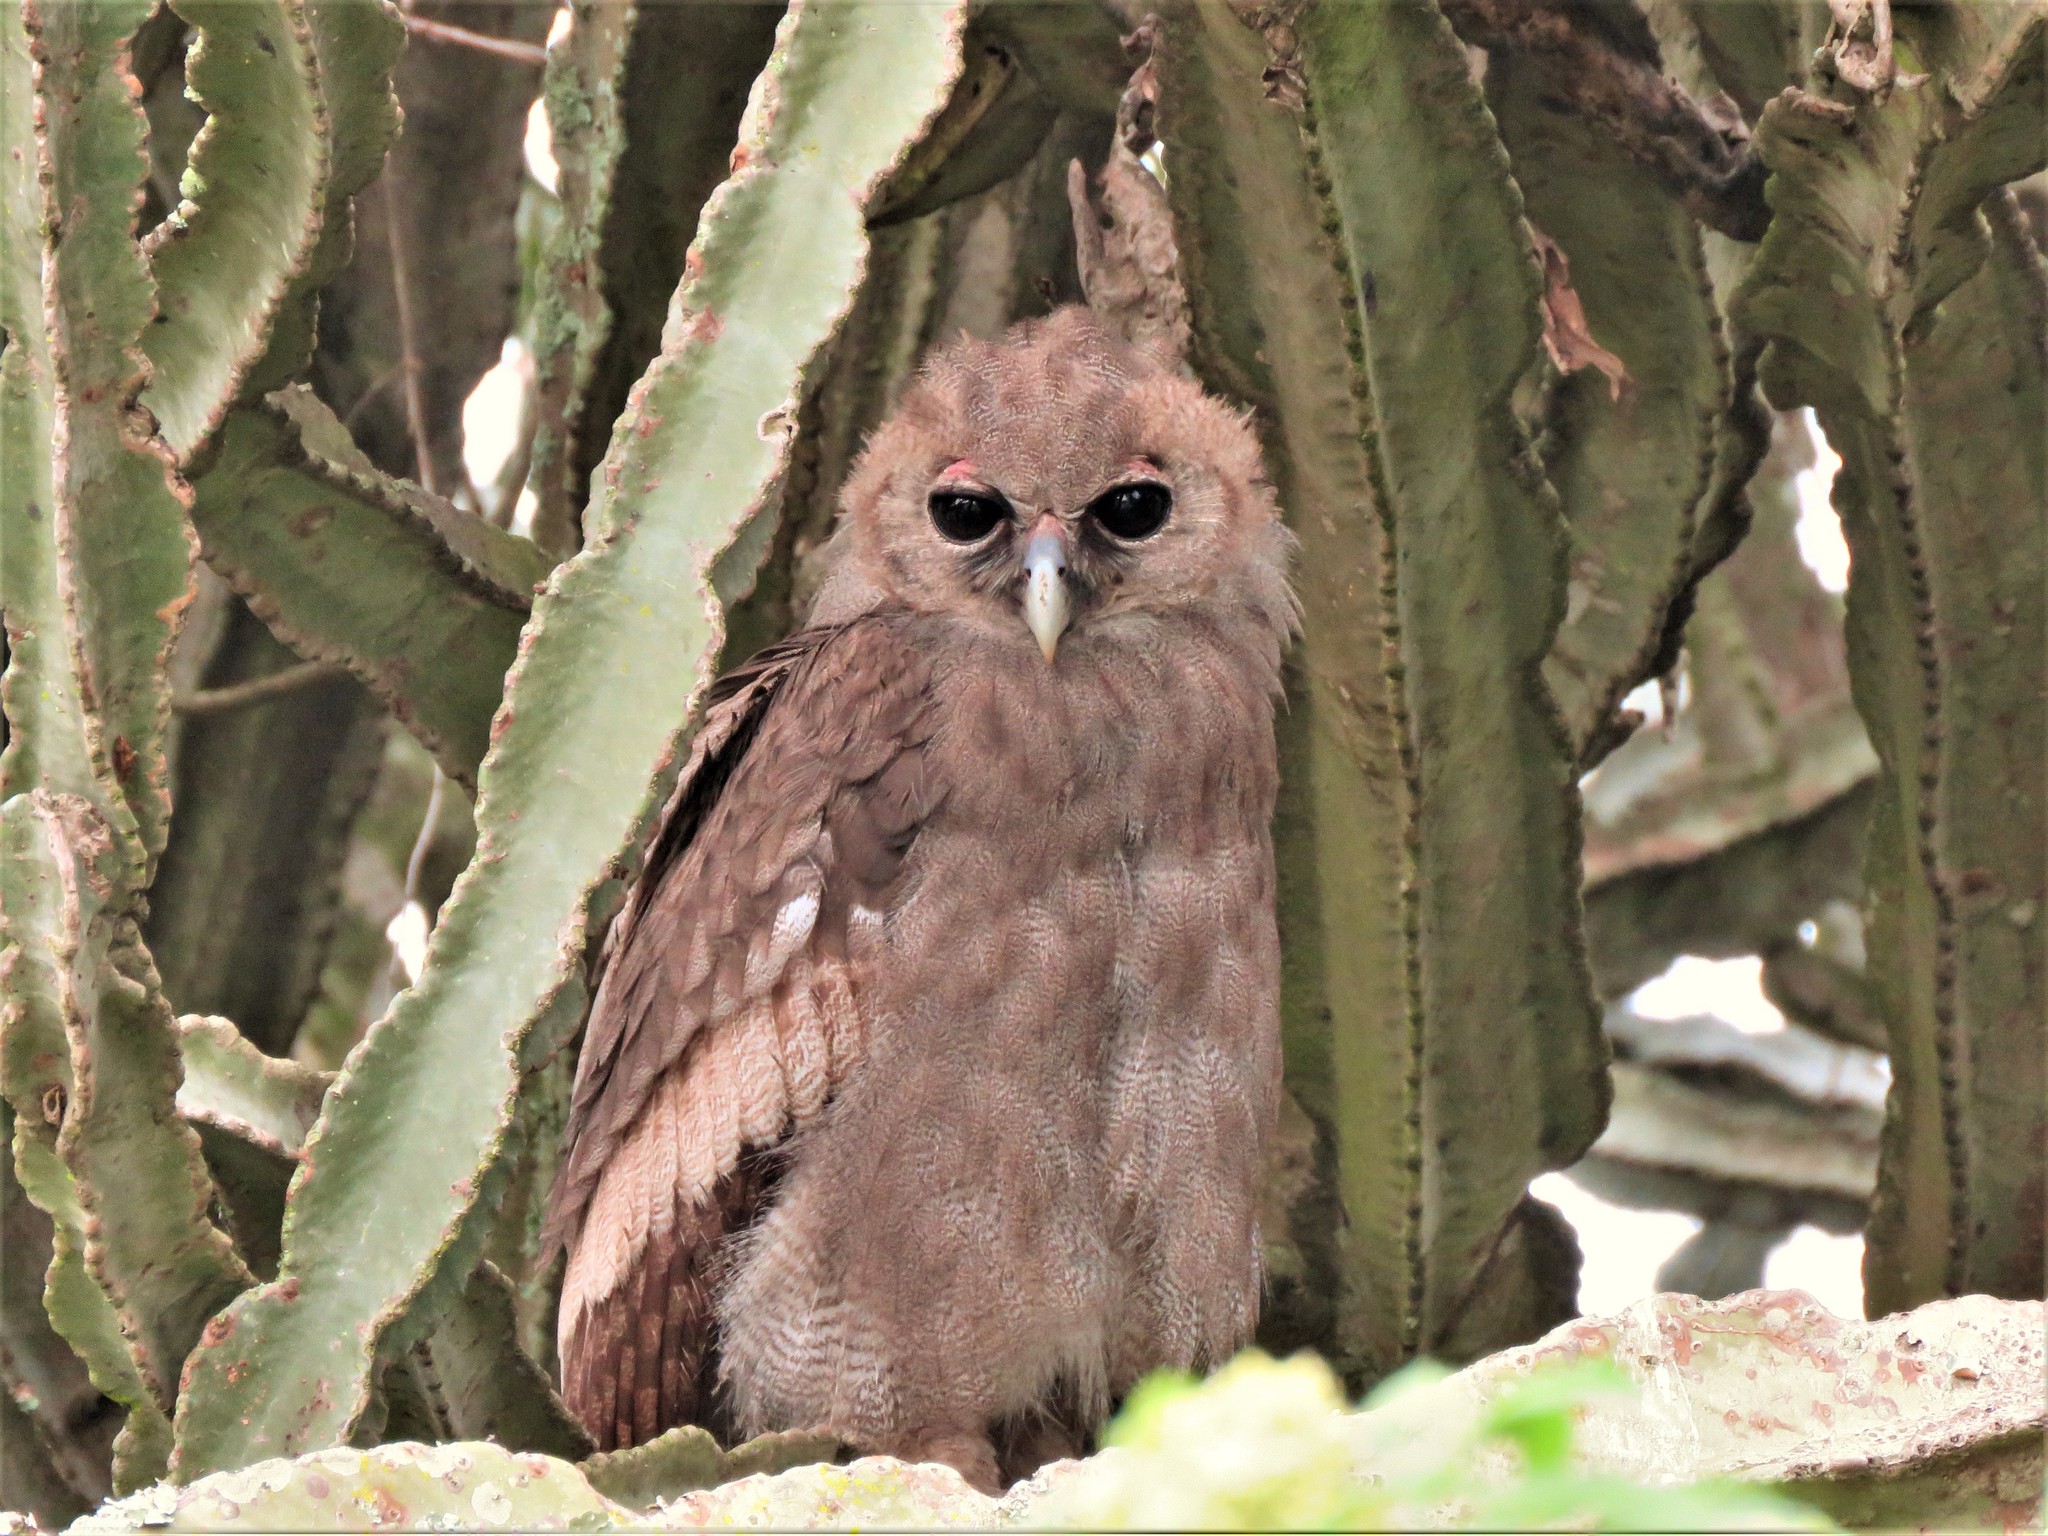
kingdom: Animalia
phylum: Chordata
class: Aves
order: Strigiformes
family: Strigidae
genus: Bubo
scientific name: Bubo lacteus
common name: Verreaux's eagle-owl
